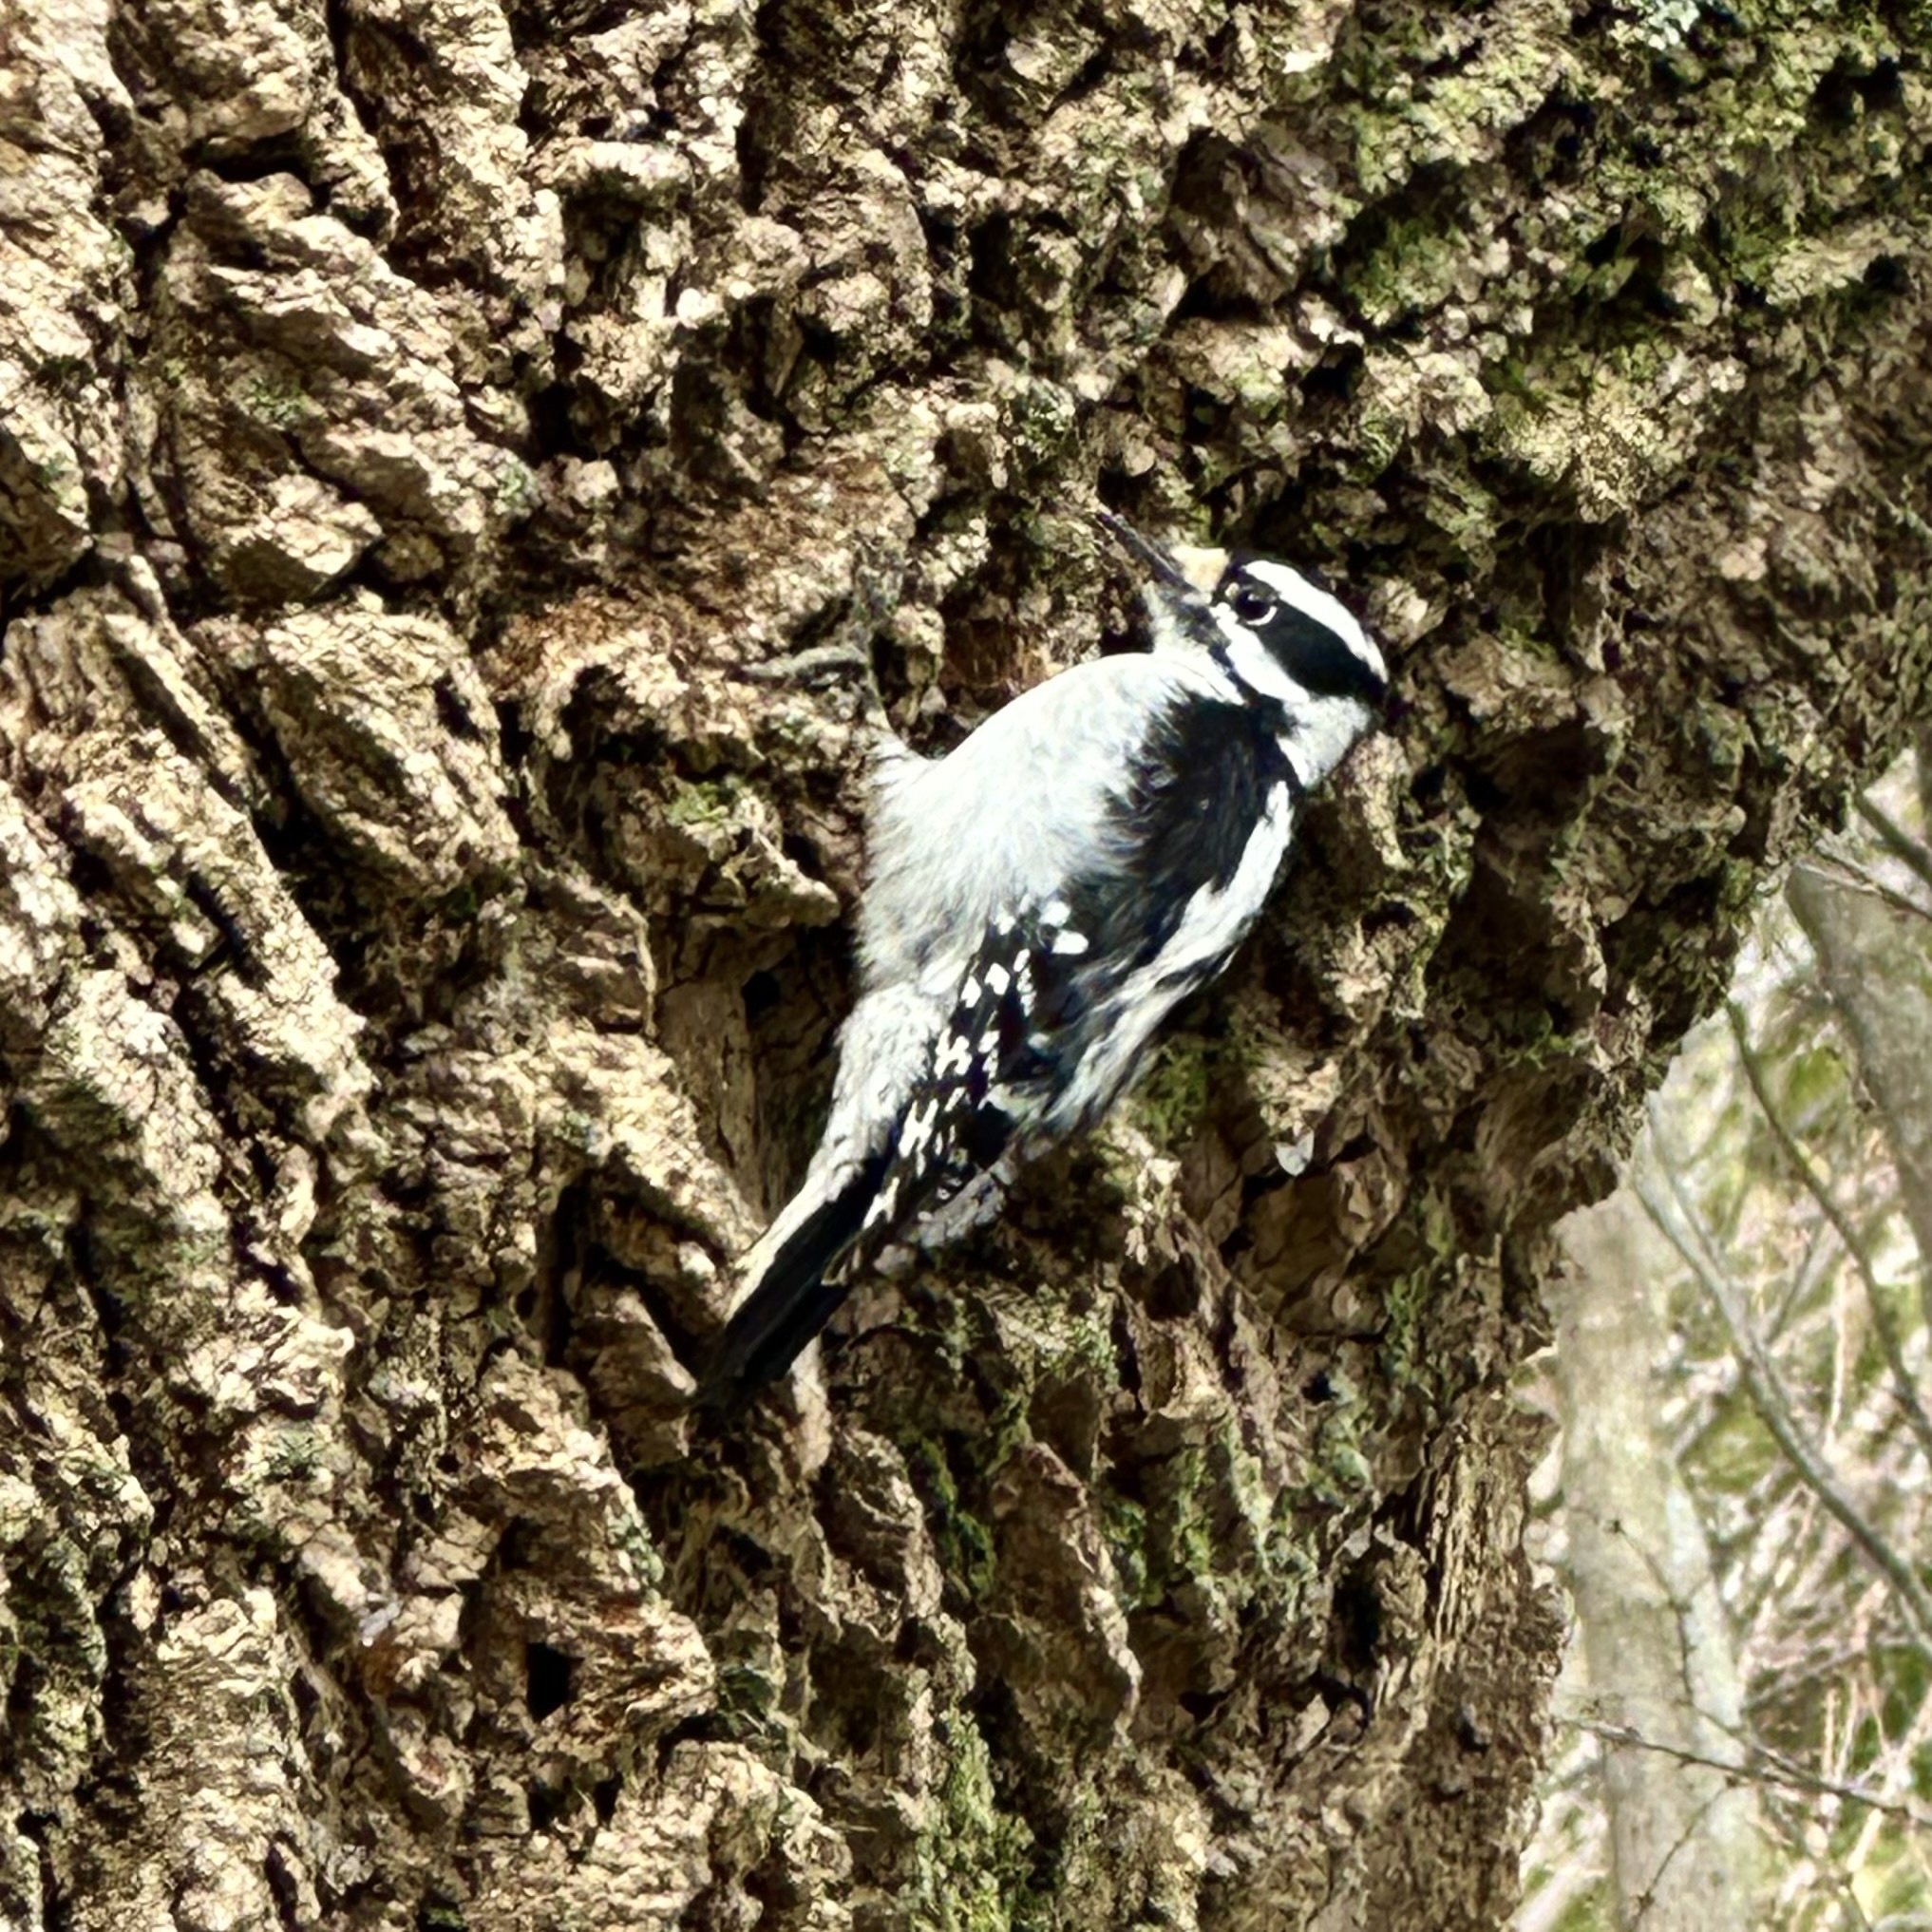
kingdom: Animalia
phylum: Chordata
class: Aves
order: Piciformes
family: Picidae
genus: Dryobates
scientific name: Dryobates pubescens
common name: Downy woodpecker
